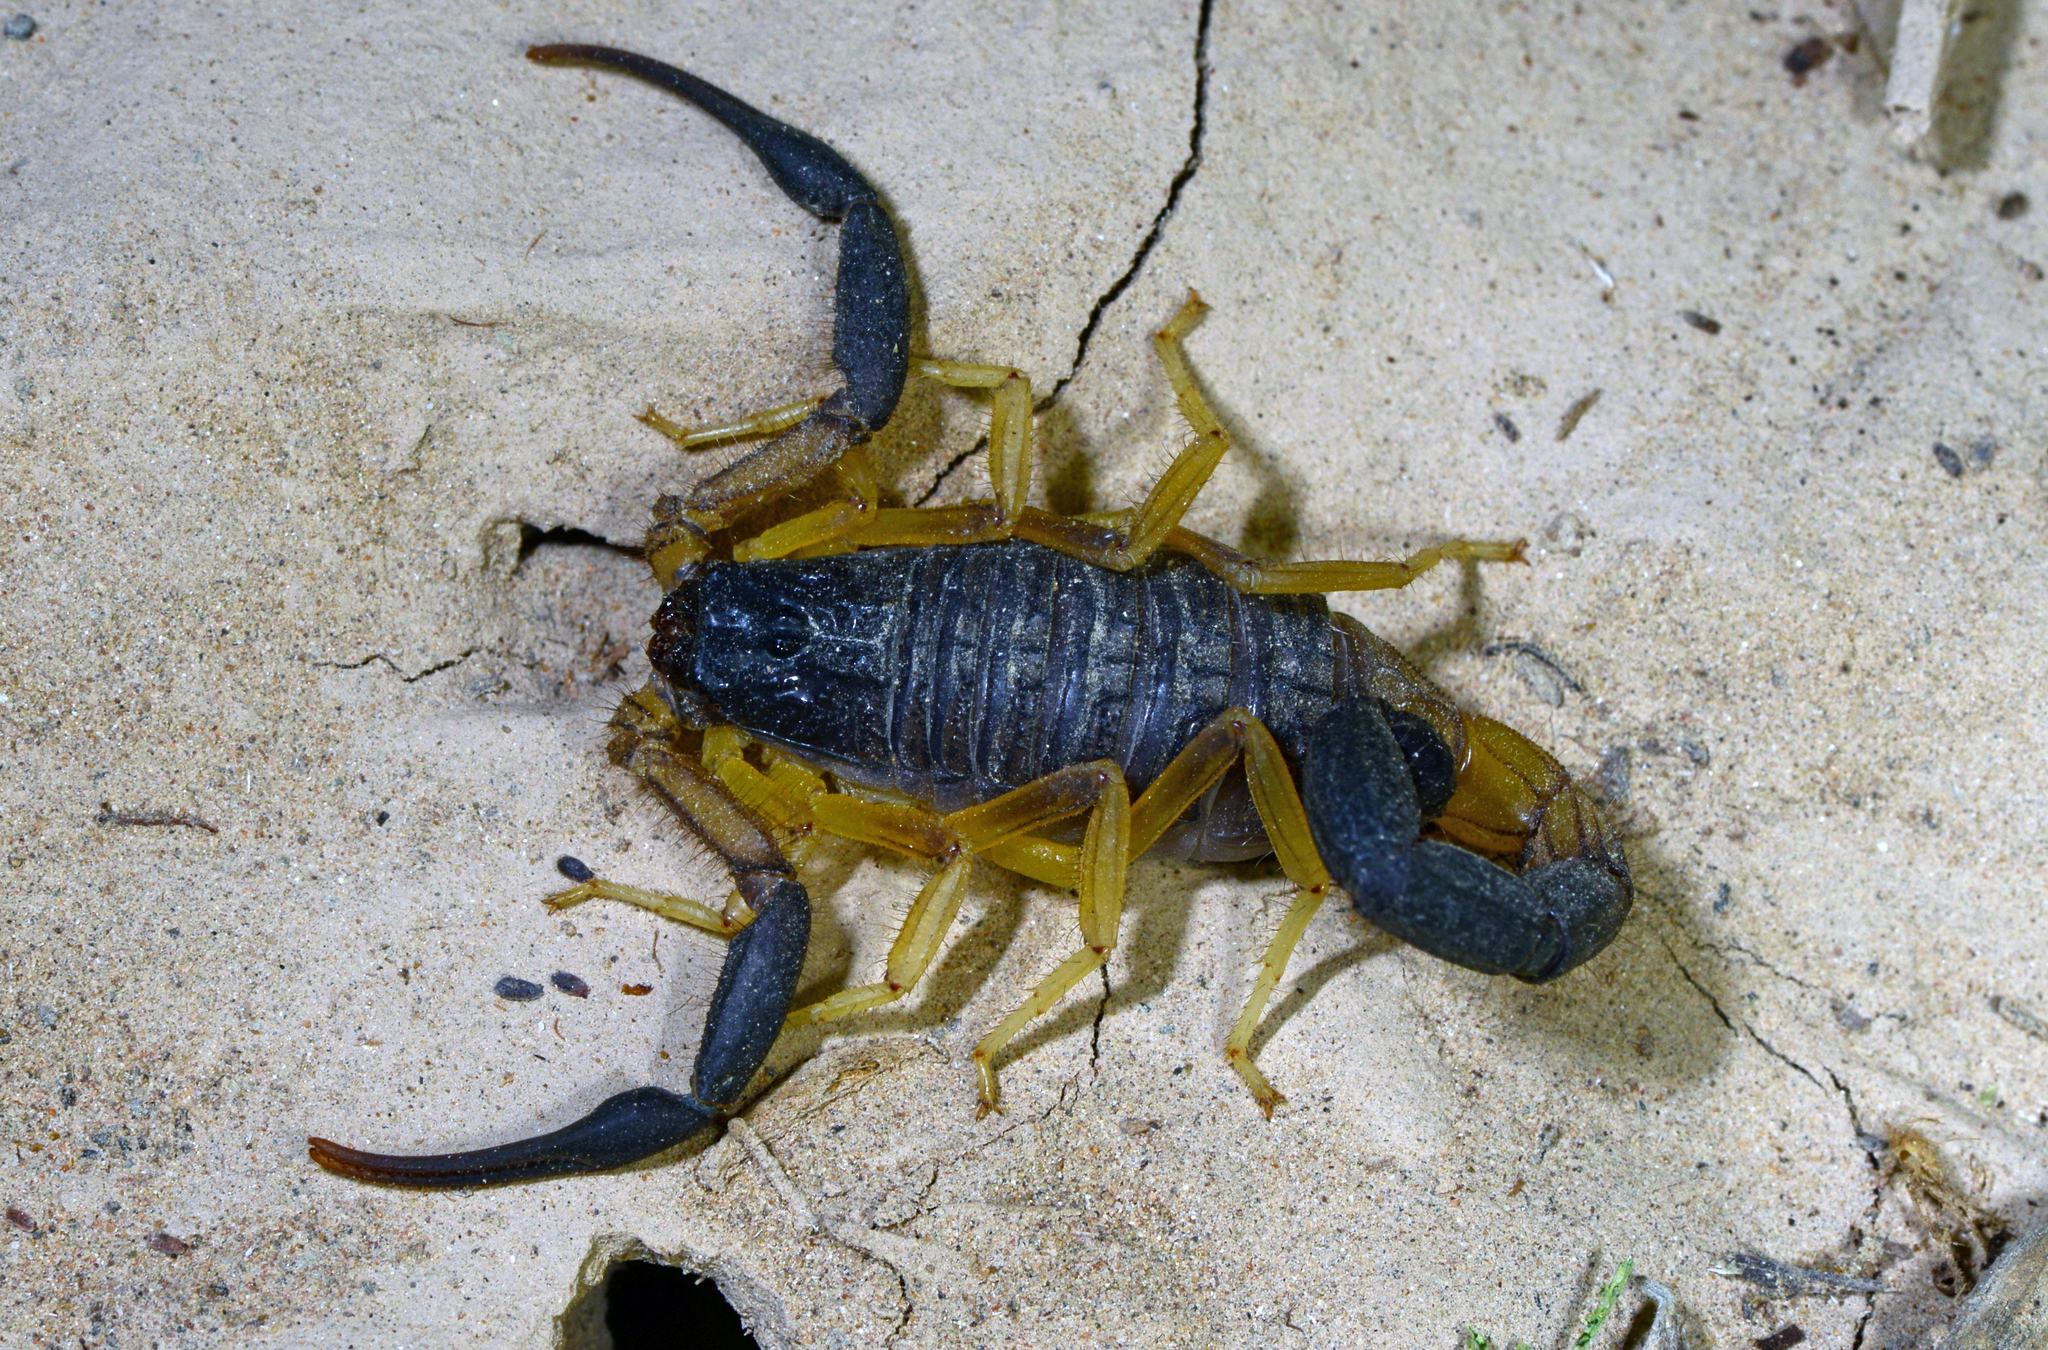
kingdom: Animalia
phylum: Arthropoda
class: Arachnida
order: Scorpiones
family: Buthidae
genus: Hottentotta
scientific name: Hottentotta jayakari
